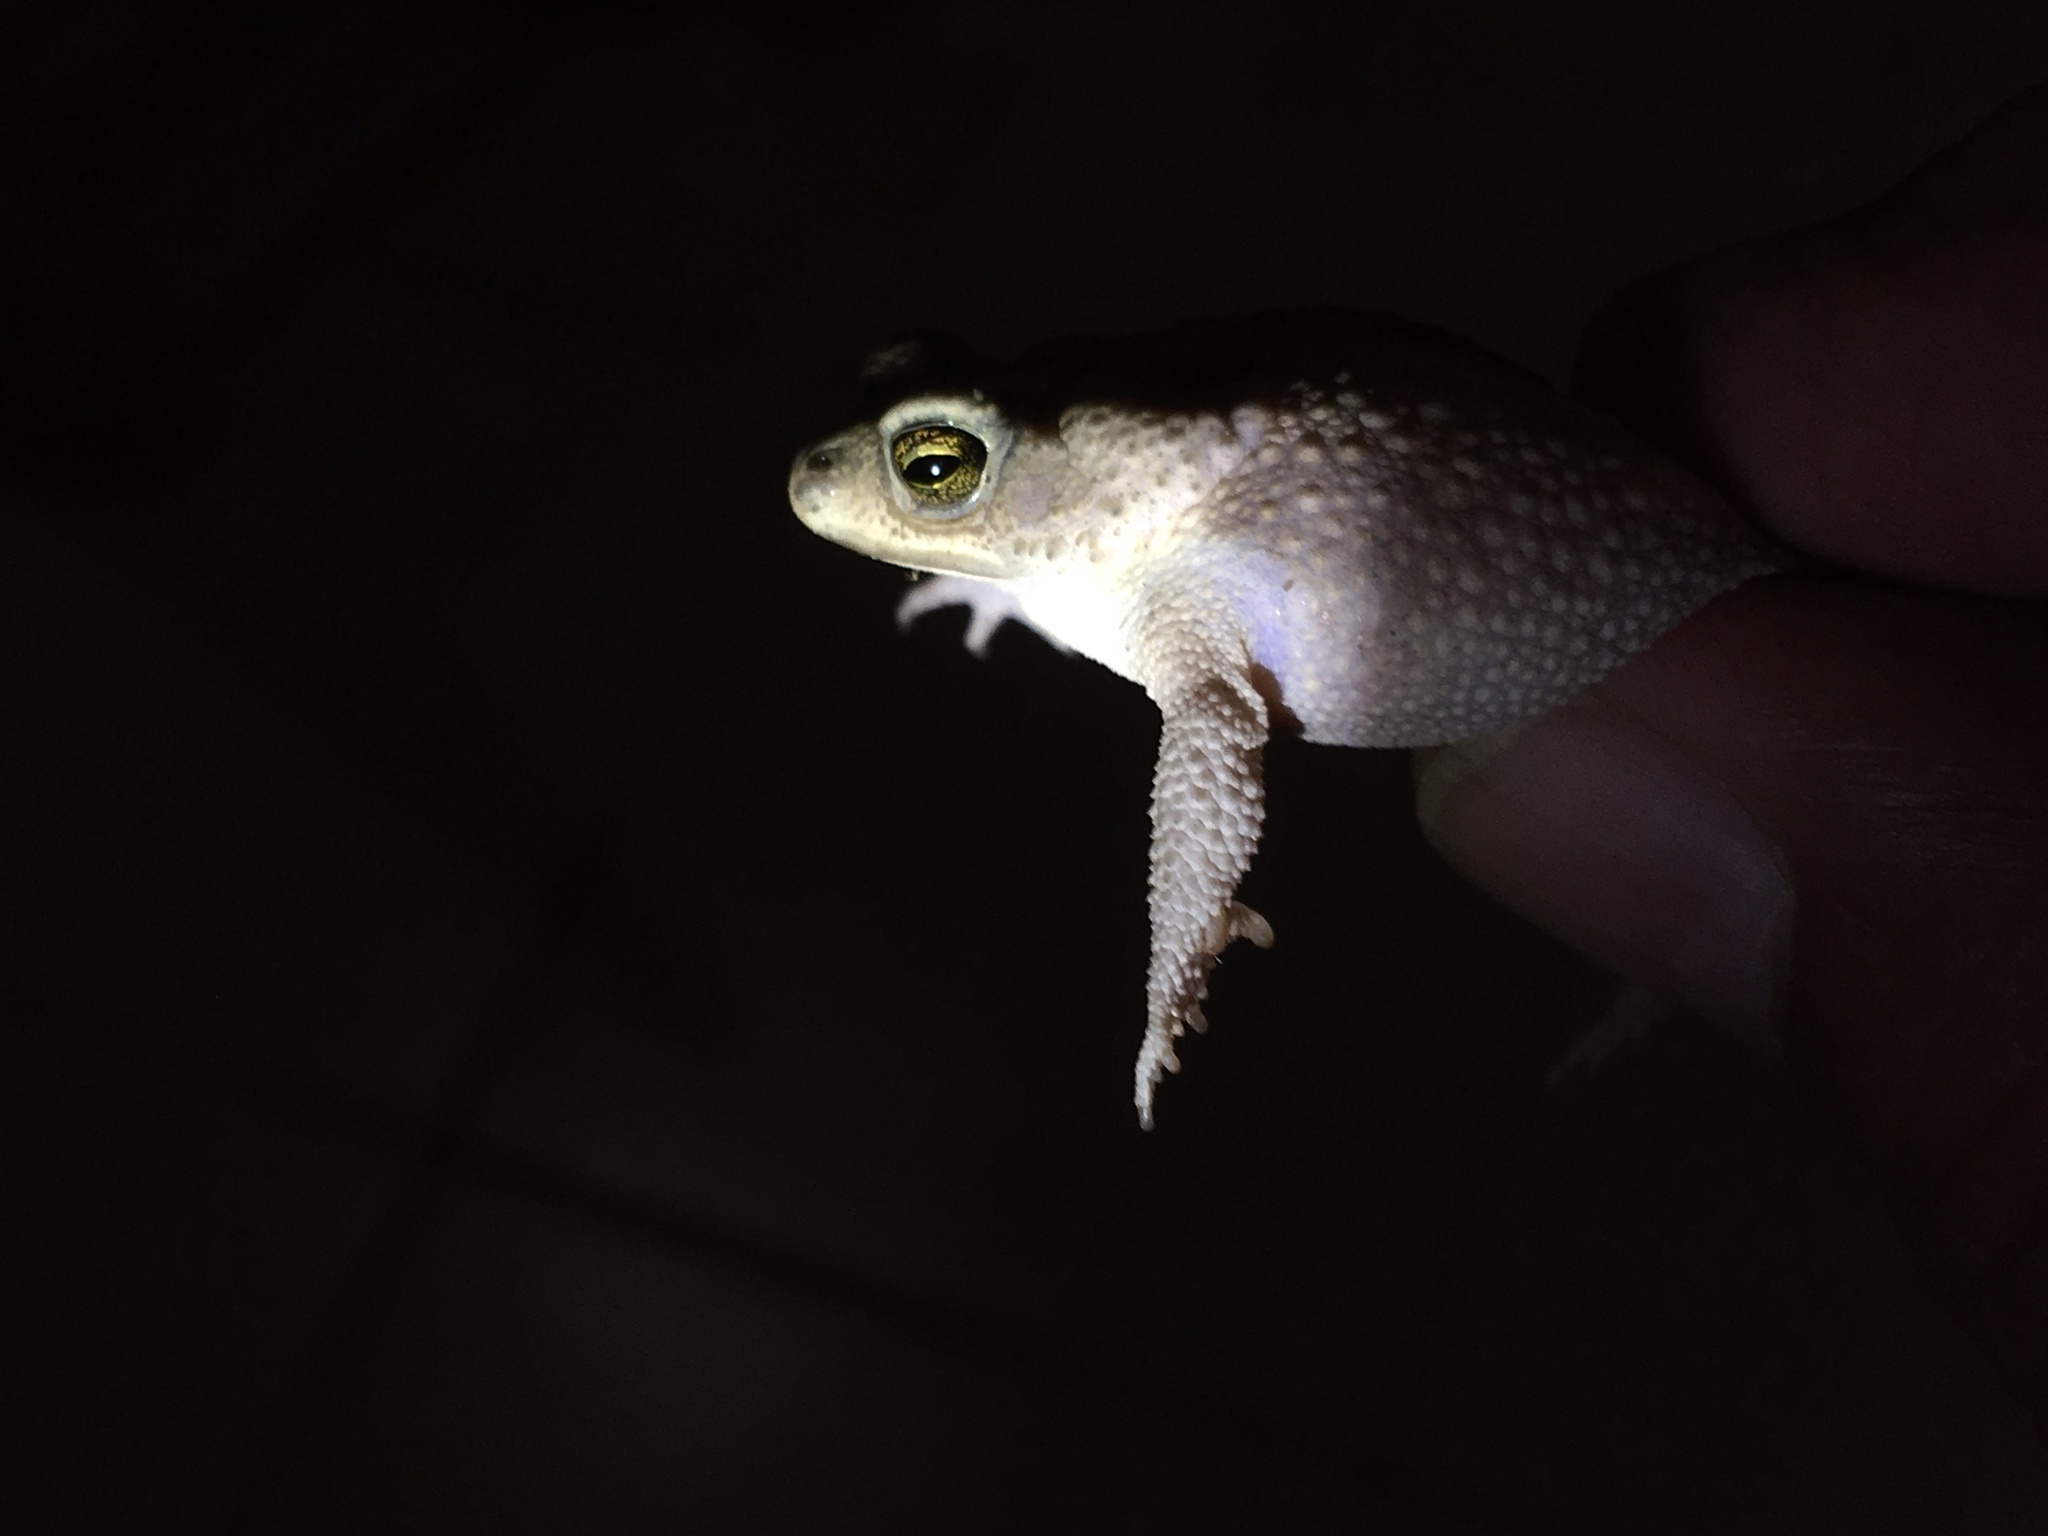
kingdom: Animalia
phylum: Chordata
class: Amphibia
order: Anura
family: Bufonidae
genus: Rhinella
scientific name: Rhinella major
